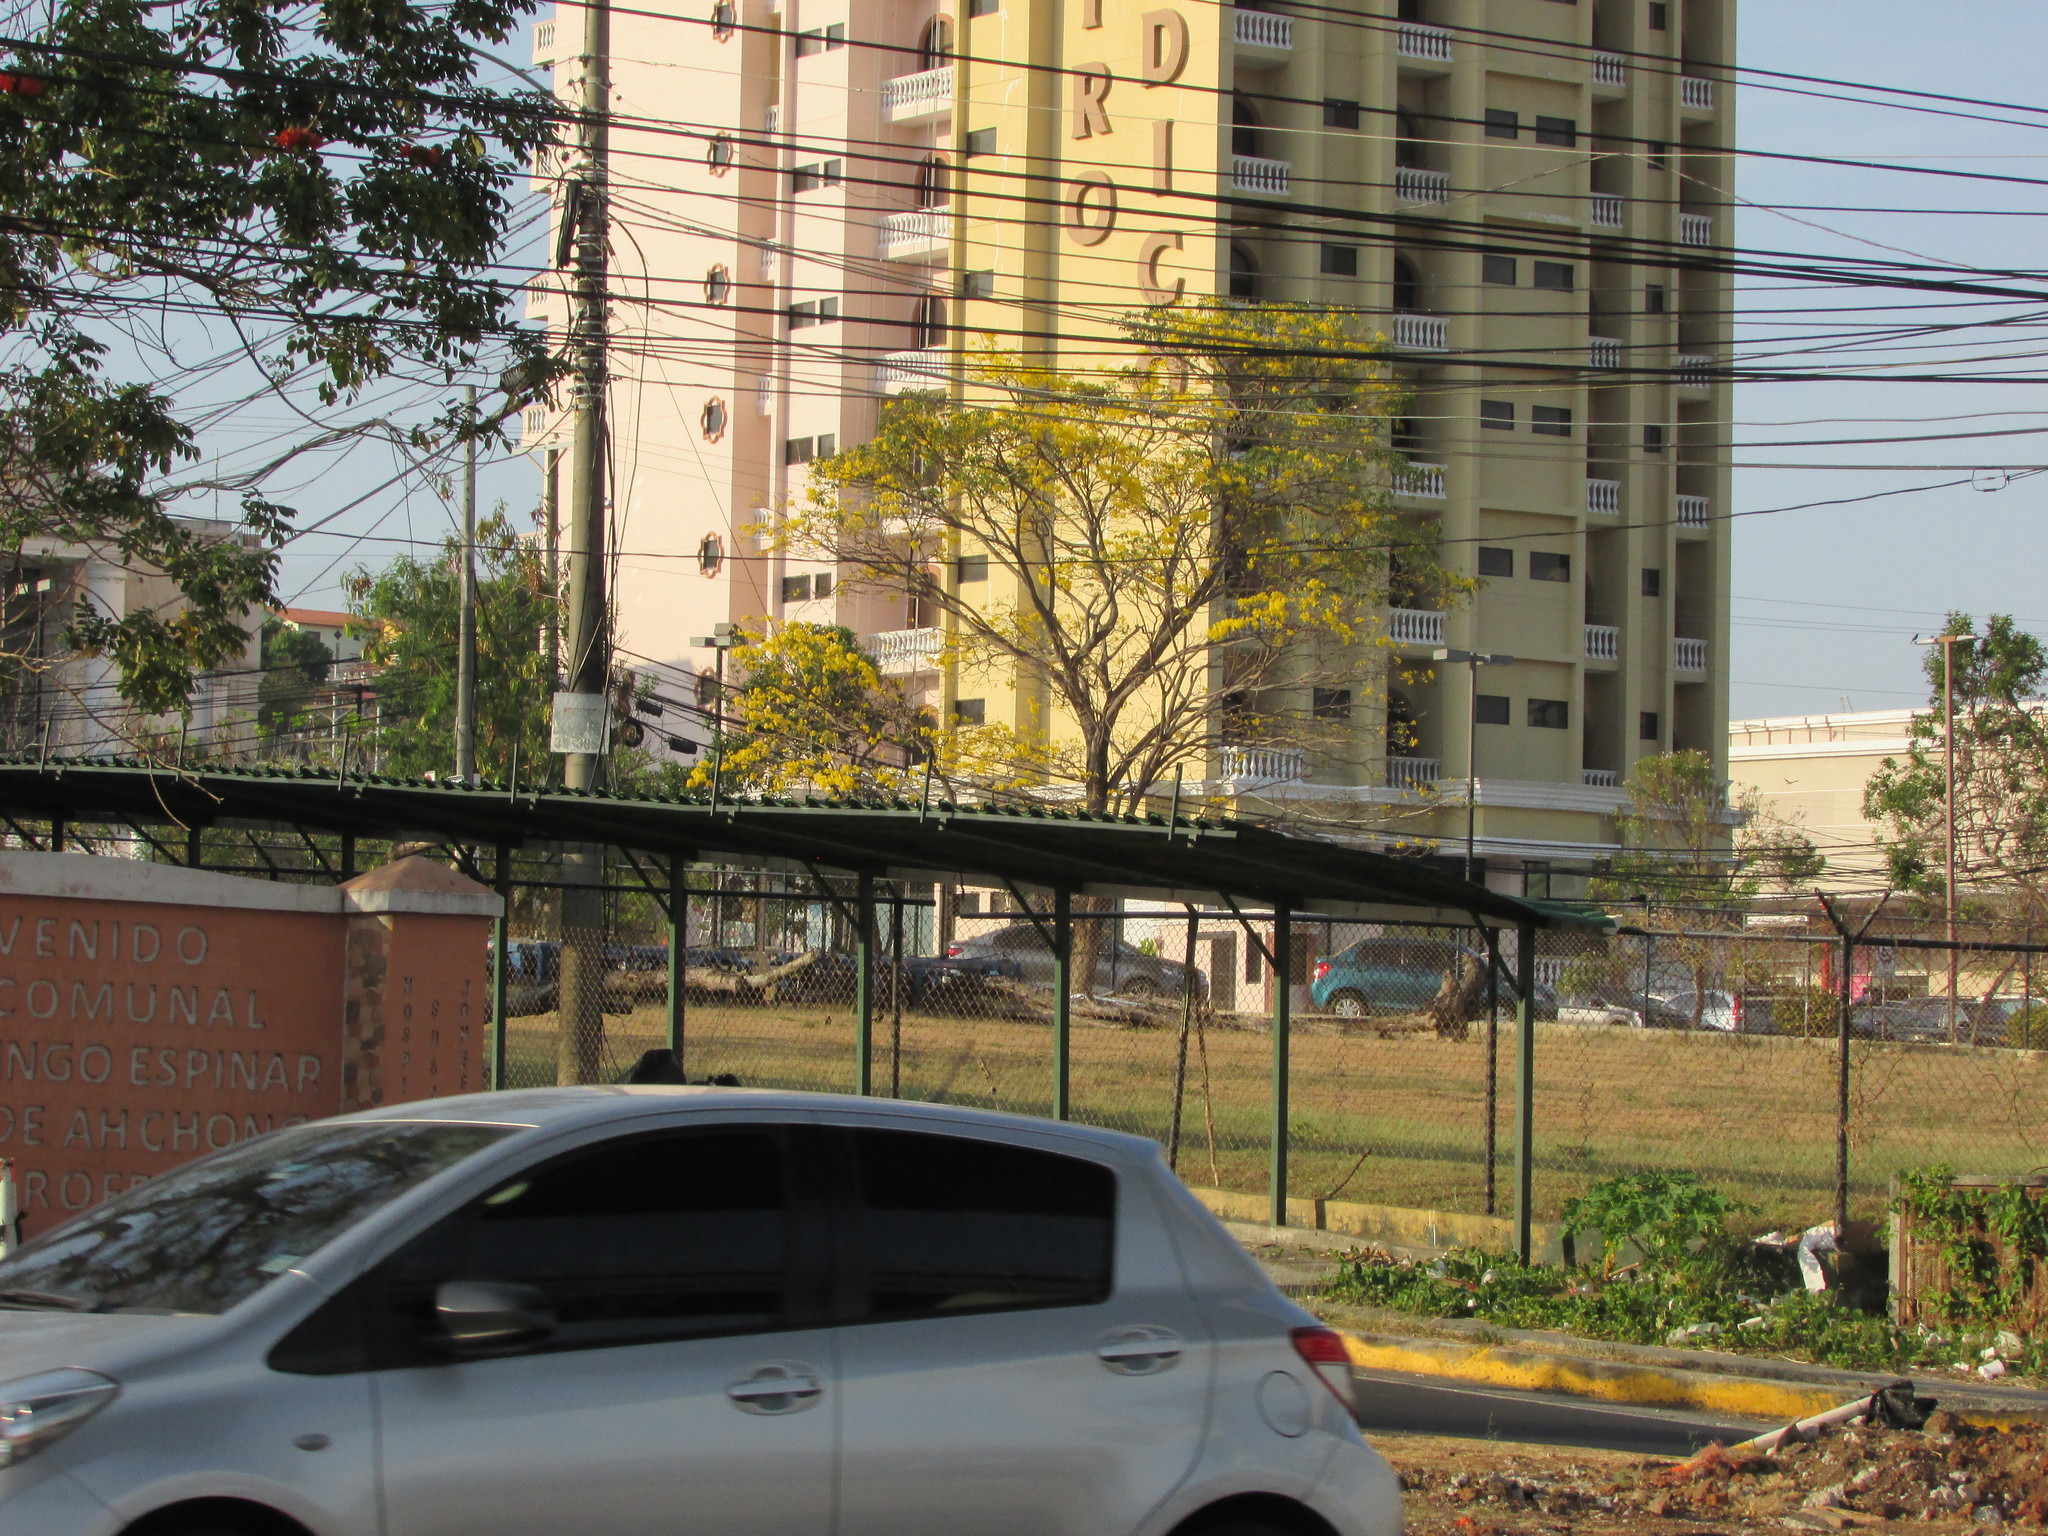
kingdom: Plantae
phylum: Tracheophyta
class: Magnoliopsida
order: Lamiales
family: Bignoniaceae
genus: Handroanthus
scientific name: Handroanthus guayacan
